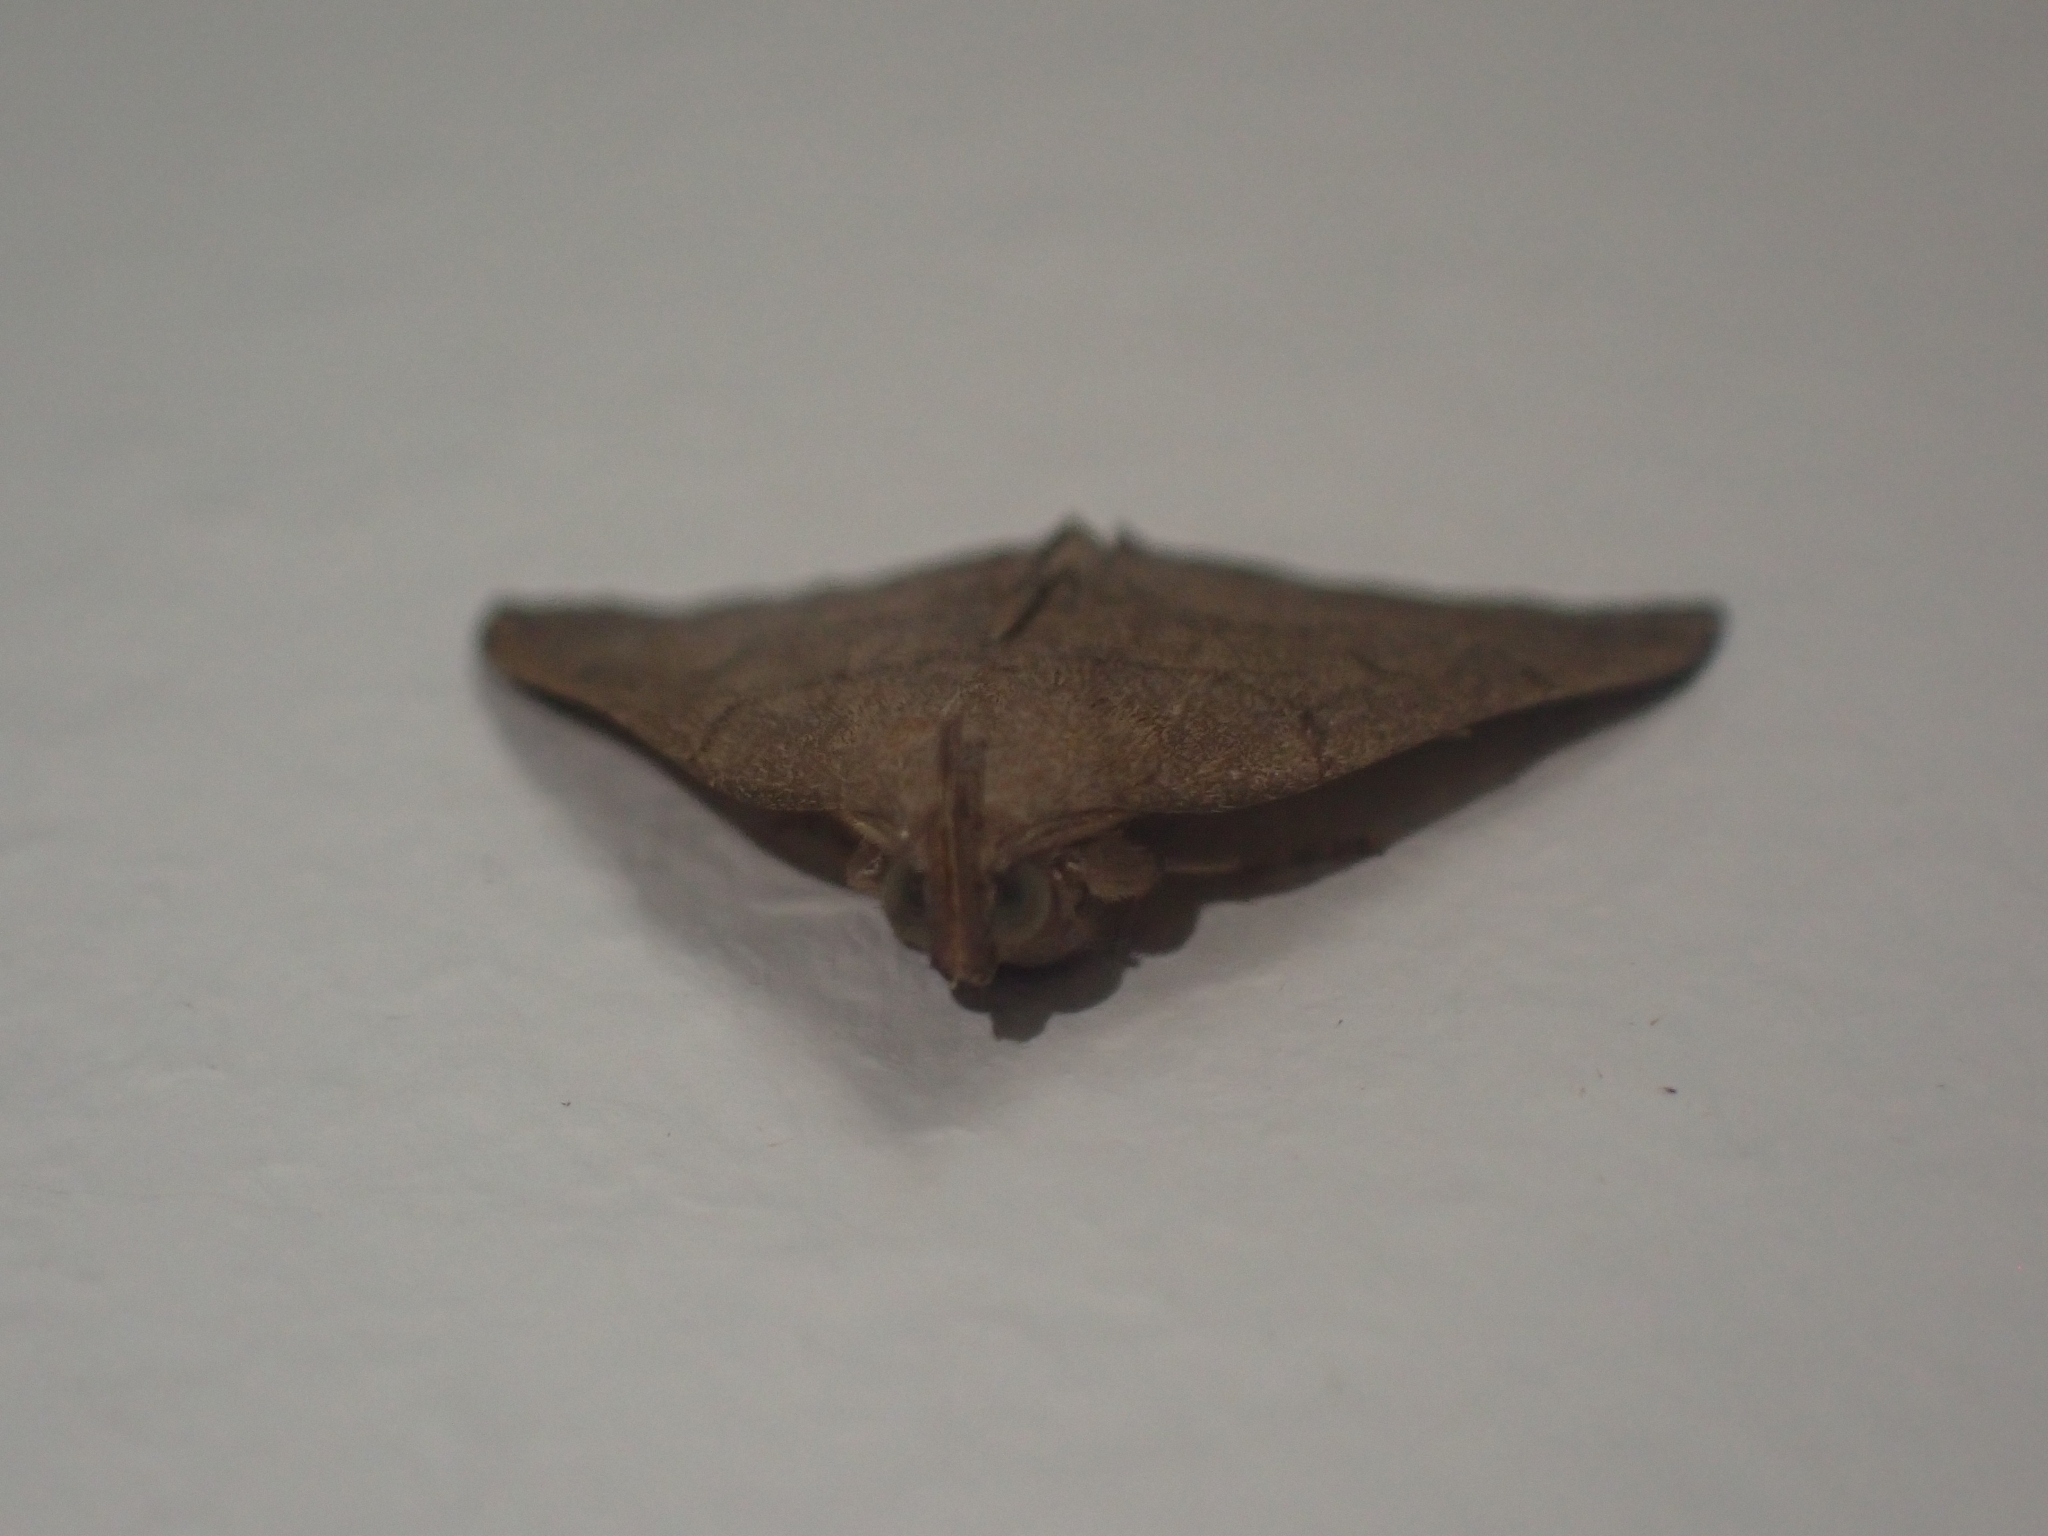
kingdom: Animalia
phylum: Arthropoda
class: Insecta
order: Lepidoptera
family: Erebidae
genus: Herminia
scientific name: Herminia tarsipennalis
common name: Fan-foot
